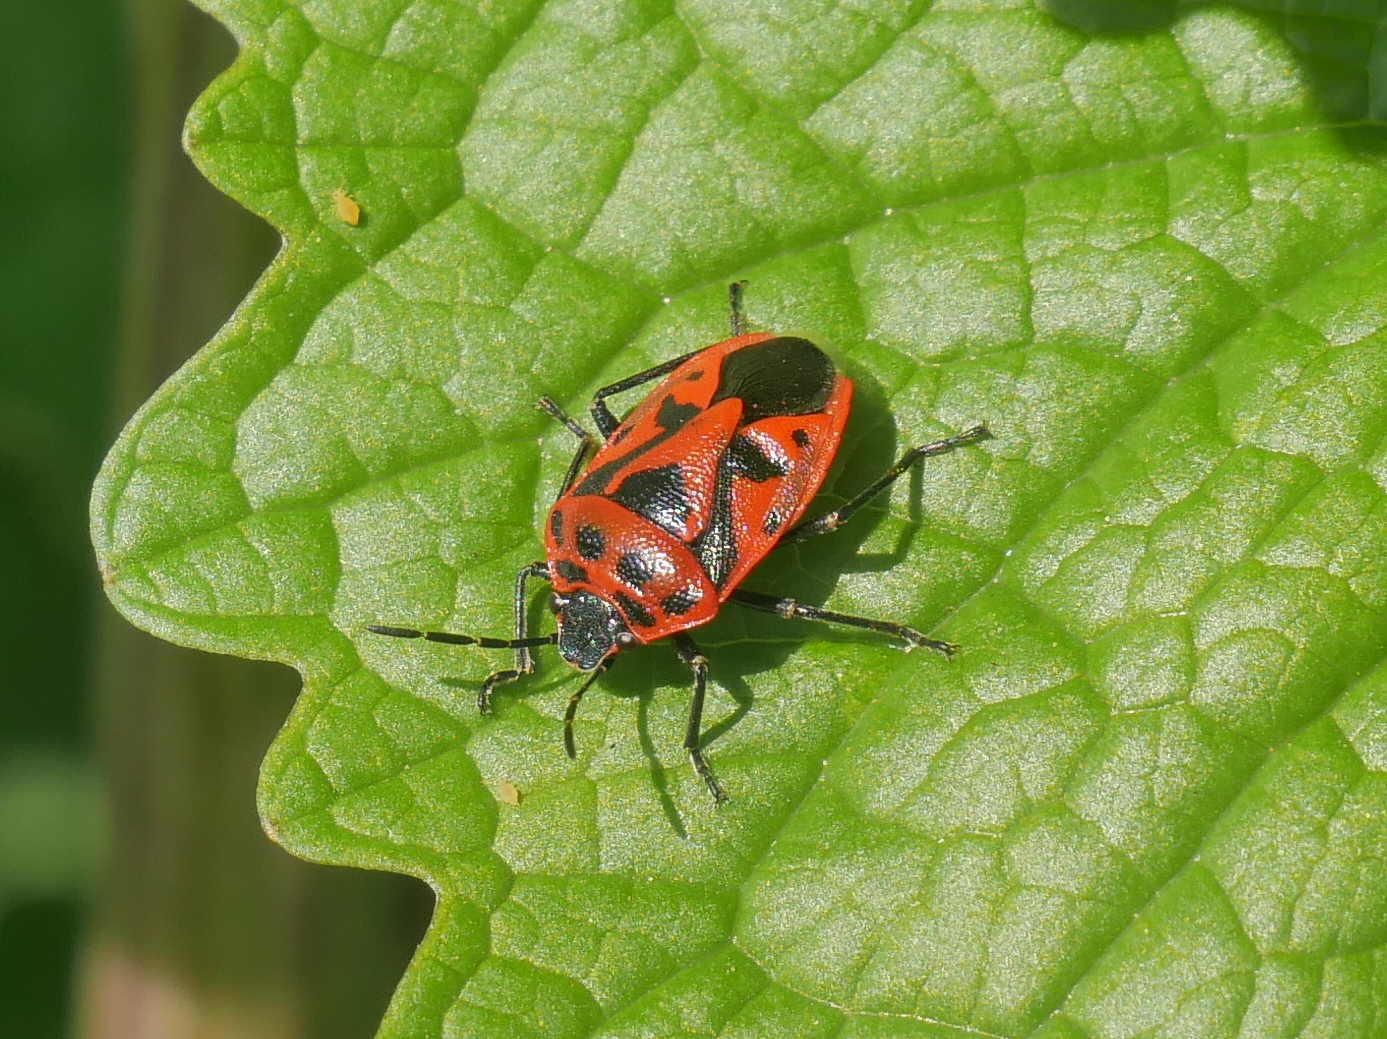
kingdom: Animalia
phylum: Arthropoda
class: Insecta
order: Hemiptera
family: Pentatomidae
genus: Eurydema
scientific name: Eurydema ornata
